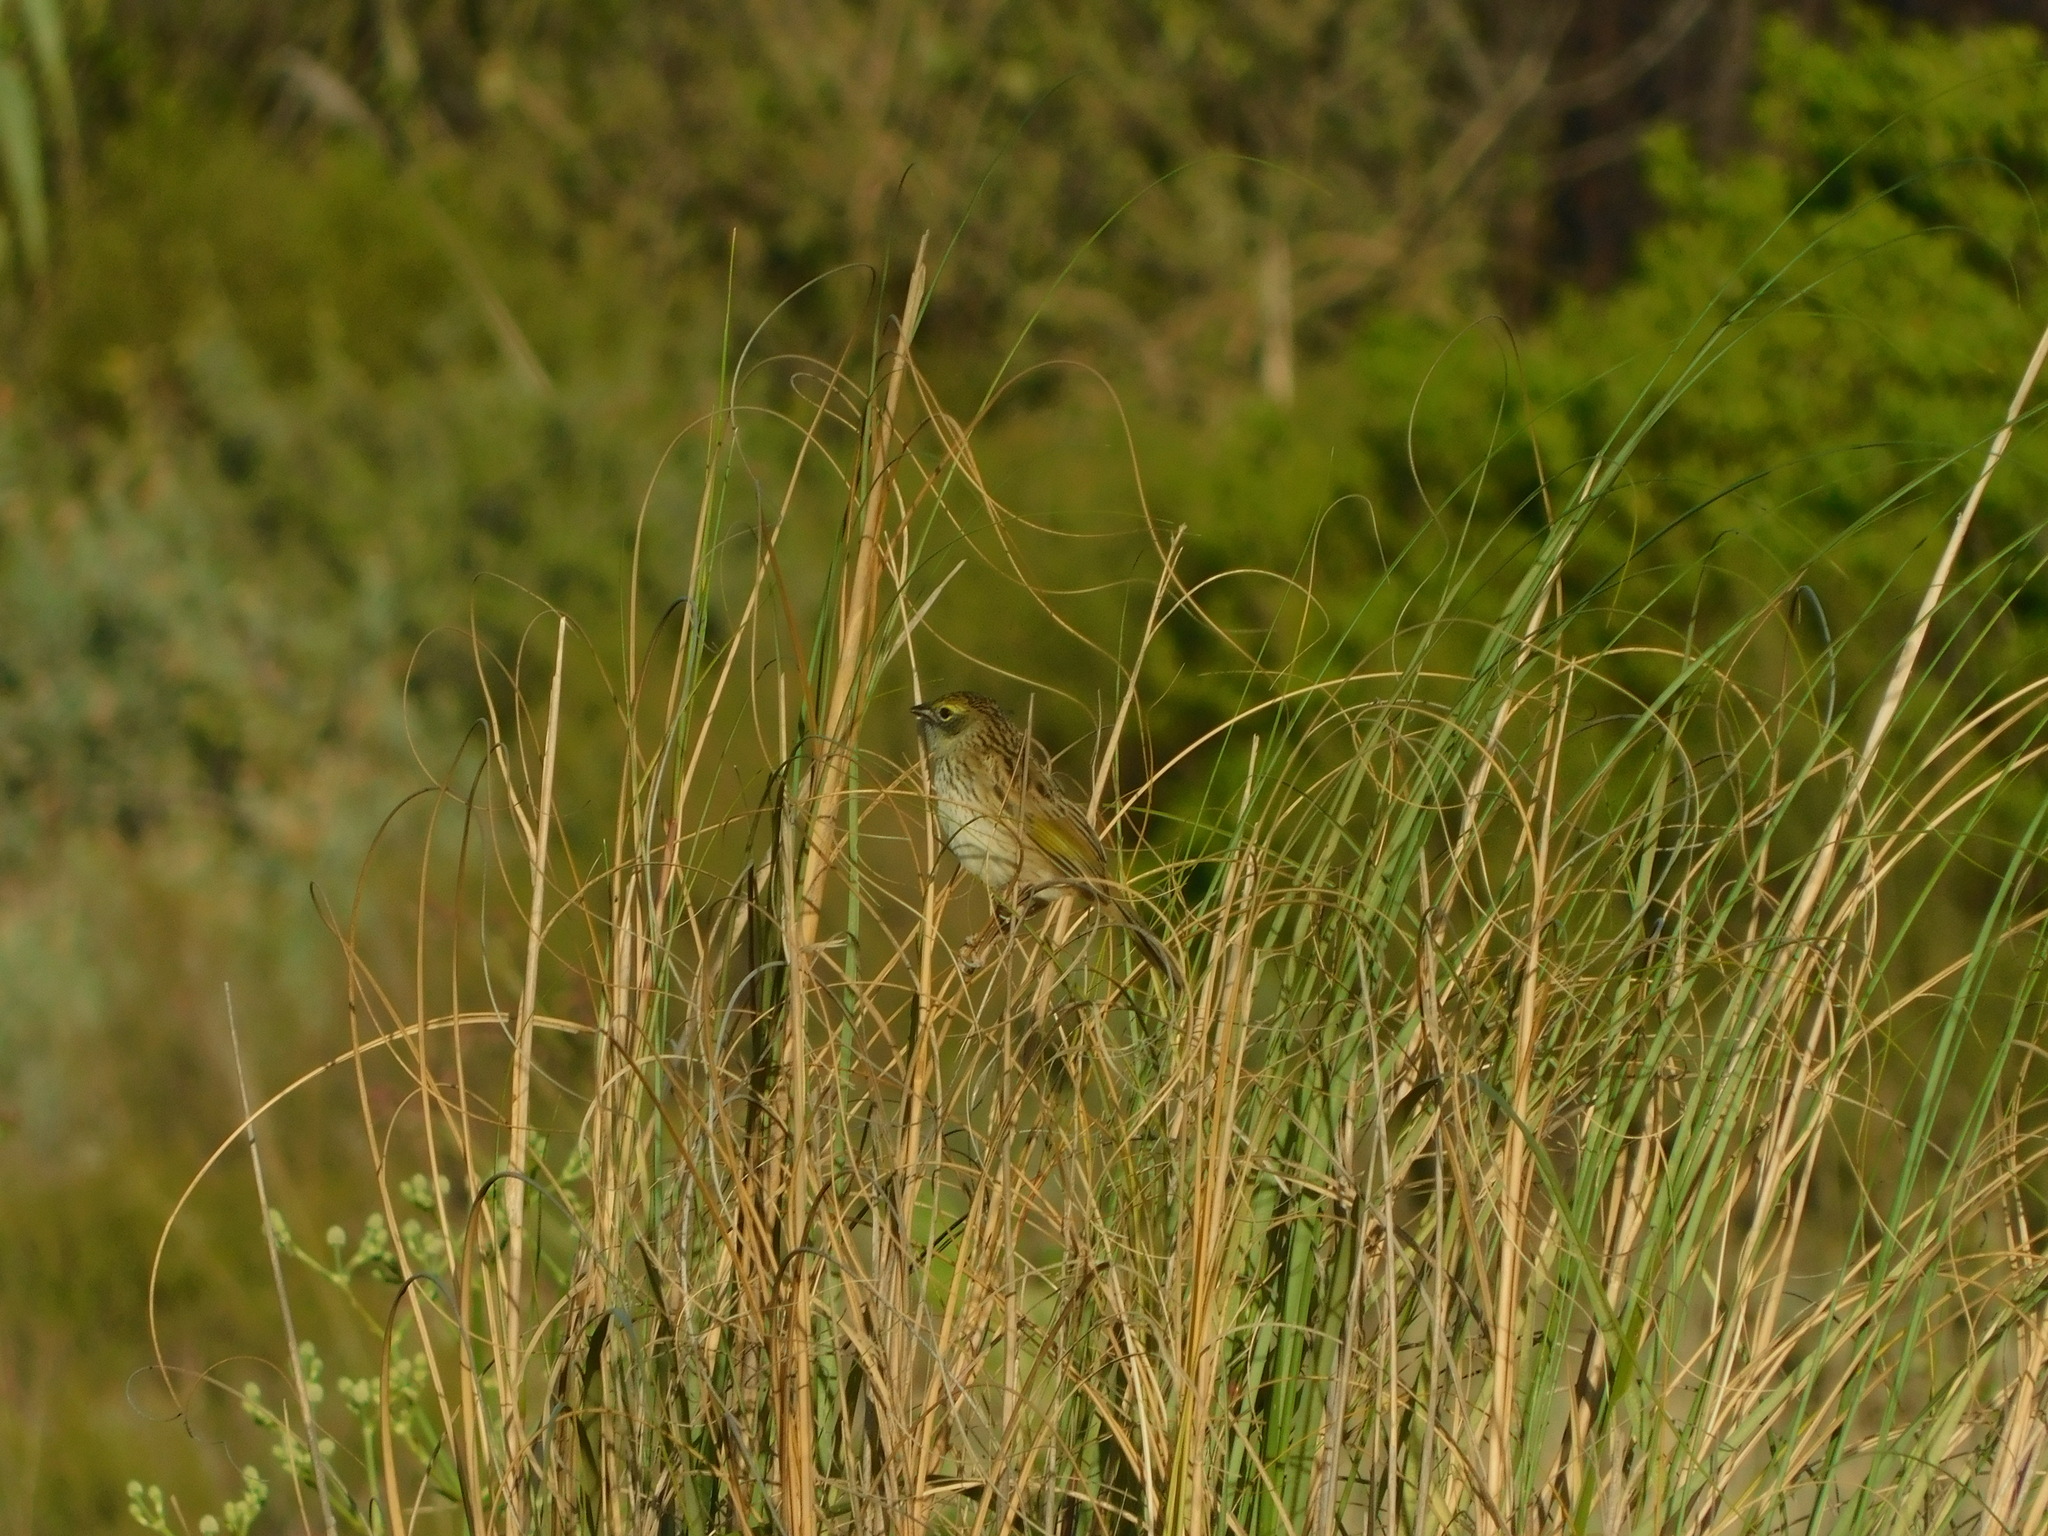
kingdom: Animalia
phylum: Chordata
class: Aves
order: Passeriformes
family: Thraupidae
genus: Embernagra
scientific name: Embernagra platensis
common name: Pampa finch
